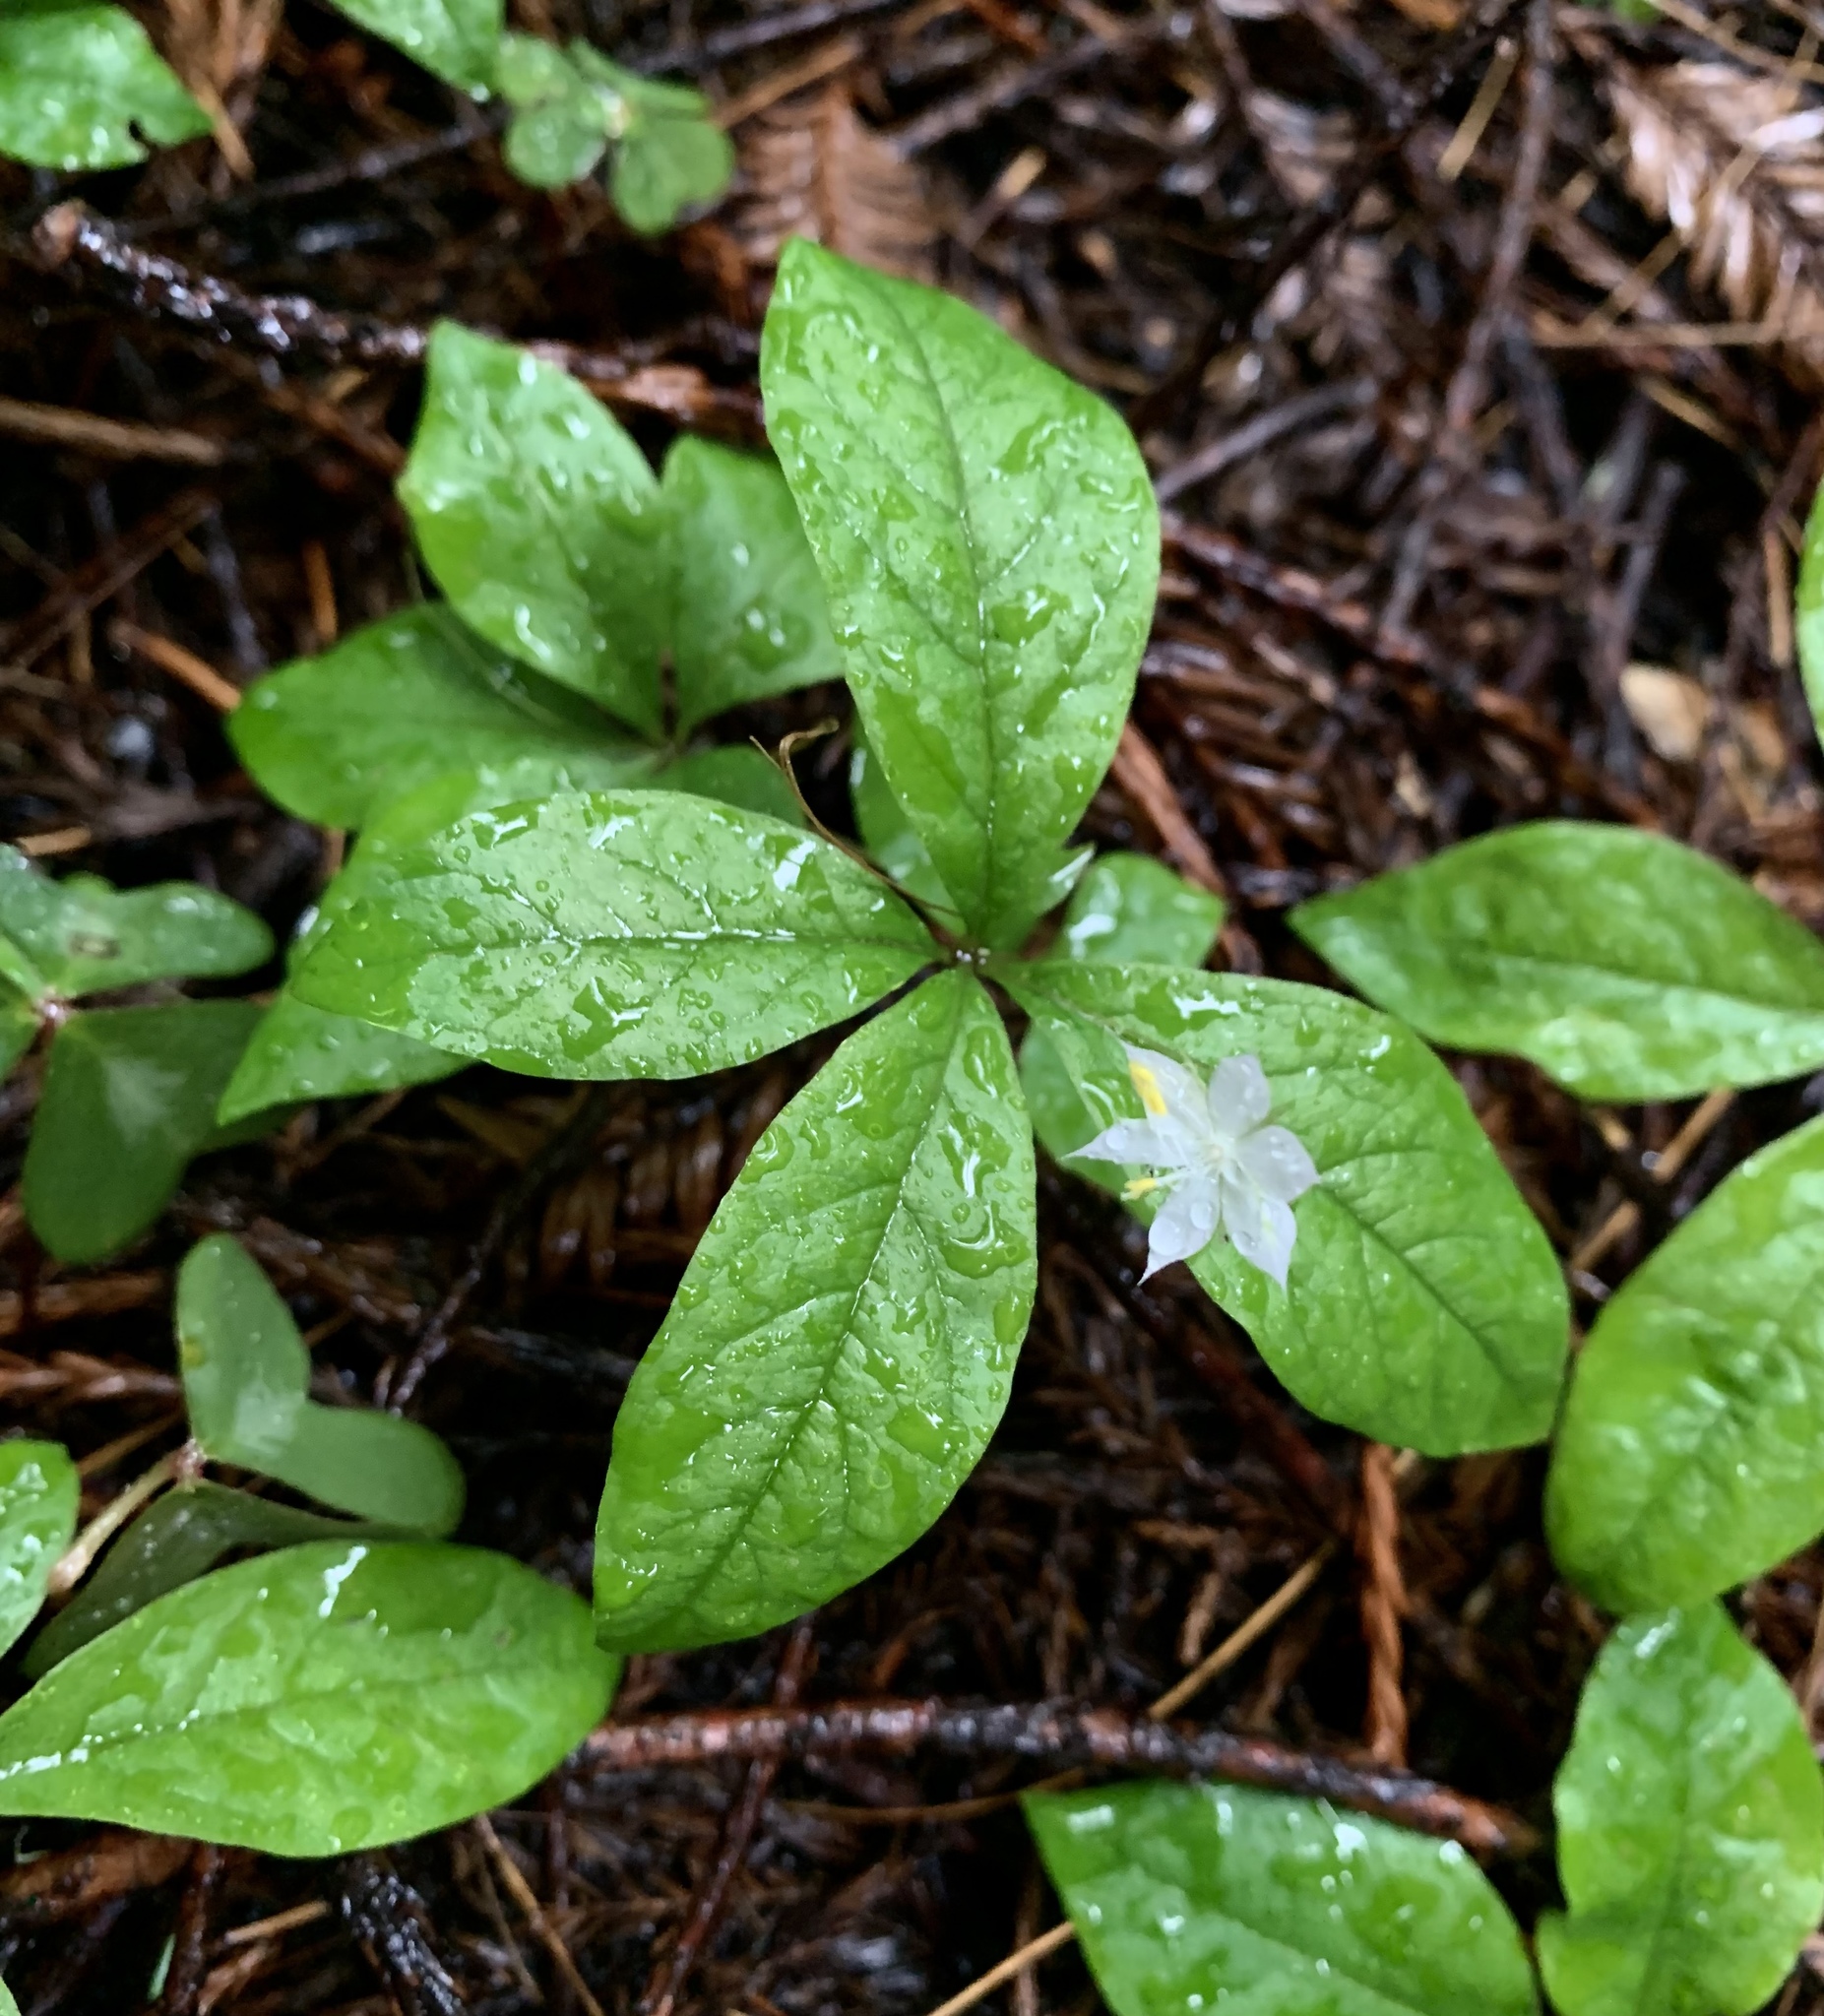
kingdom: Plantae
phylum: Tracheophyta
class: Magnoliopsida
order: Ericales
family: Primulaceae
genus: Lysimachia
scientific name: Lysimachia latifolia
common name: Pacific starflower
